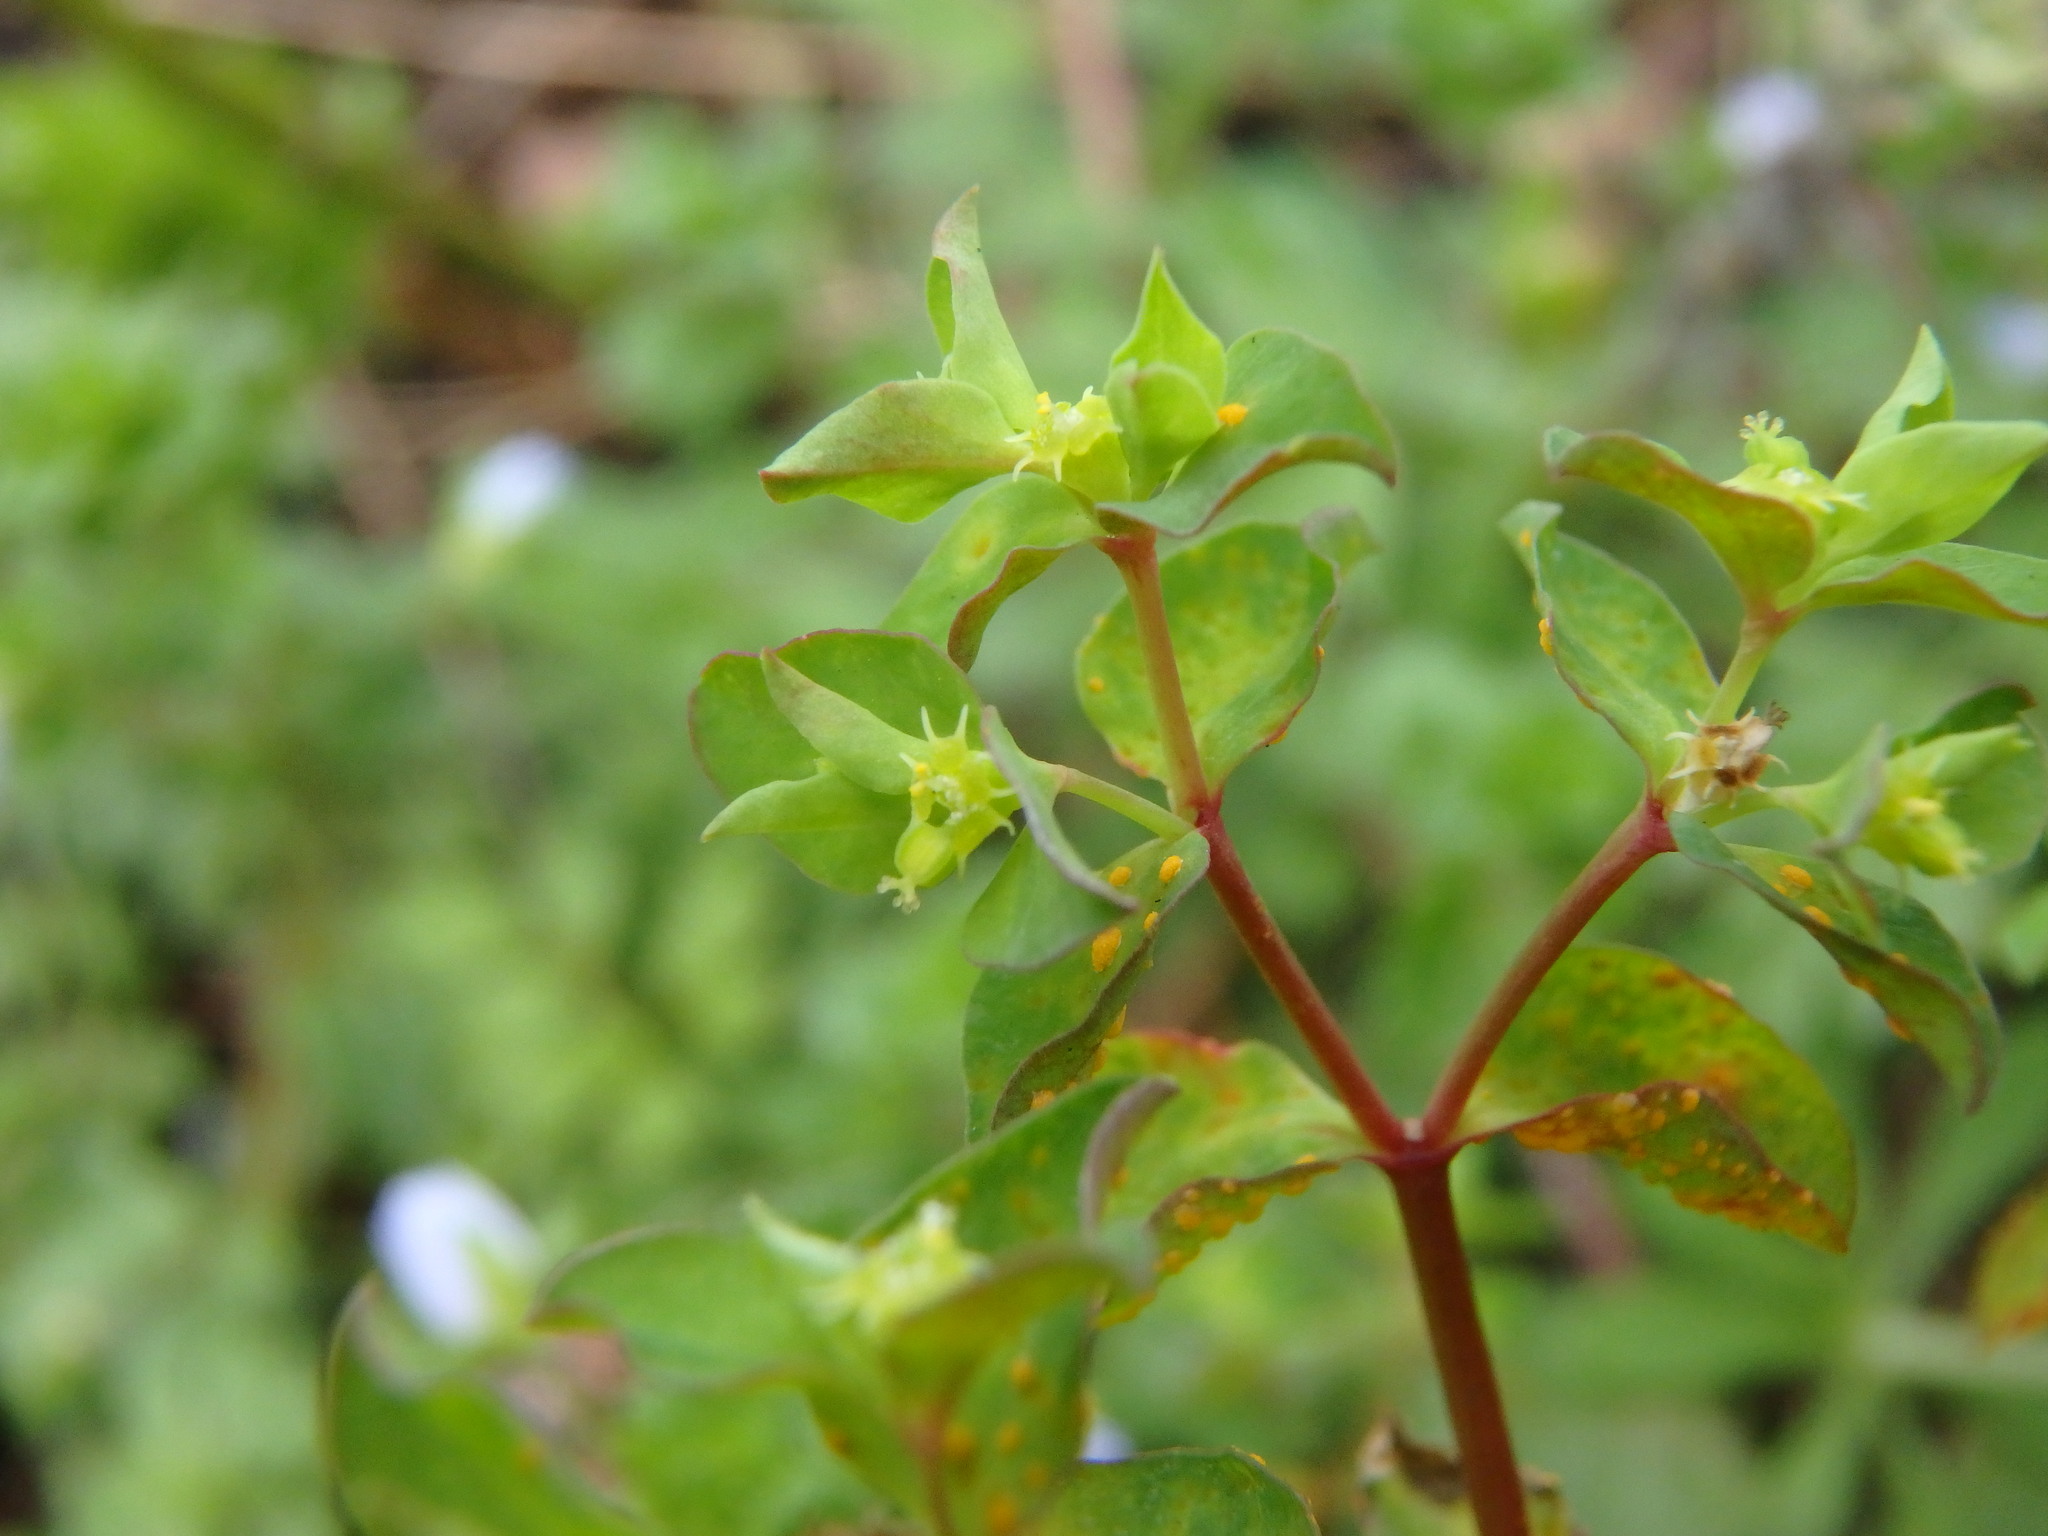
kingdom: Plantae
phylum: Tracheophyta
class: Magnoliopsida
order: Malpighiales
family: Euphorbiaceae
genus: Euphorbia
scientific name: Euphorbia peplus
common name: Petty spurge
